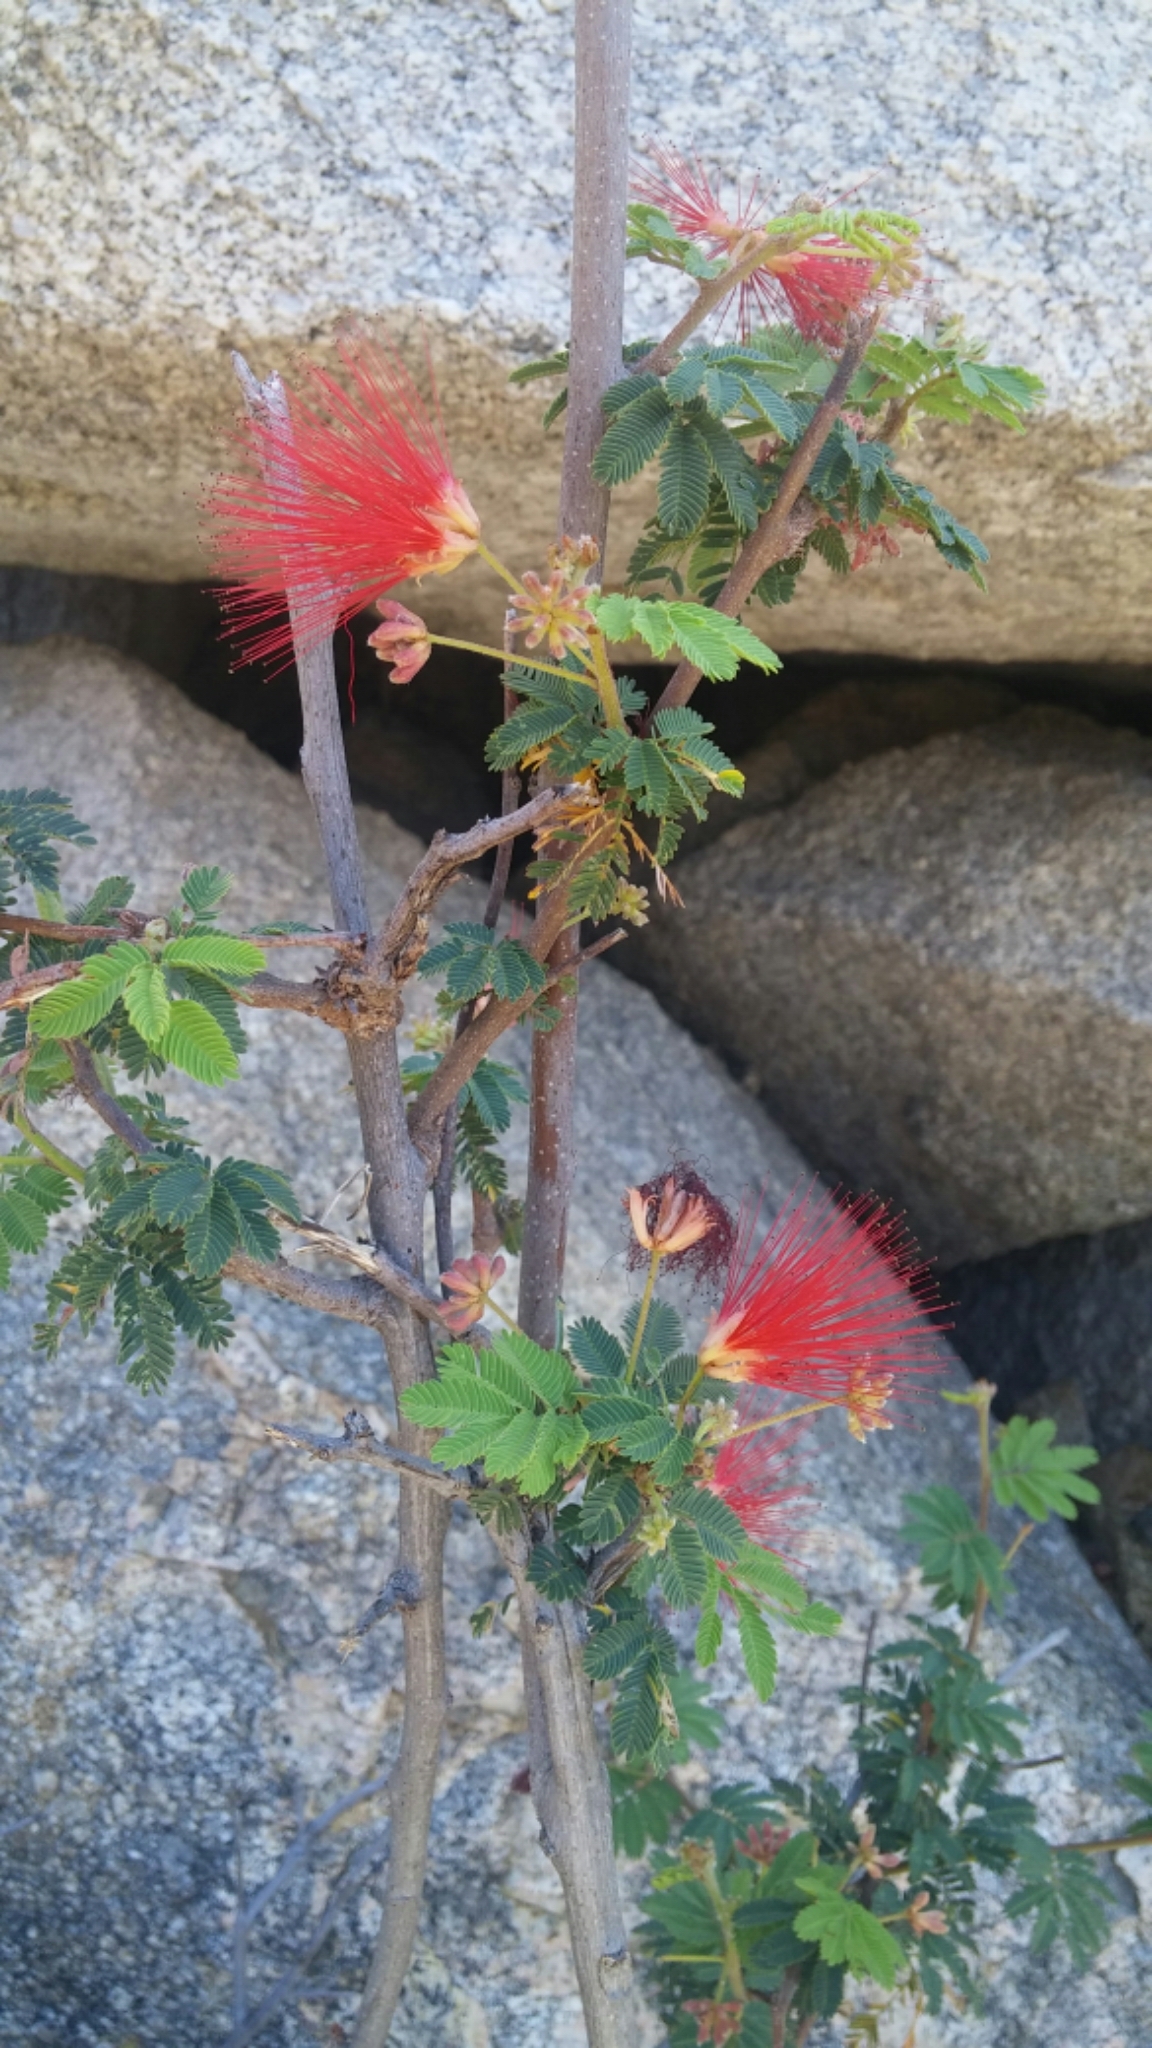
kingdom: Plantae
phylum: Tracheophyta
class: Magnoliopsida
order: Fabales
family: Fabaceae
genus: Calliandra
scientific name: Calliandra californica
